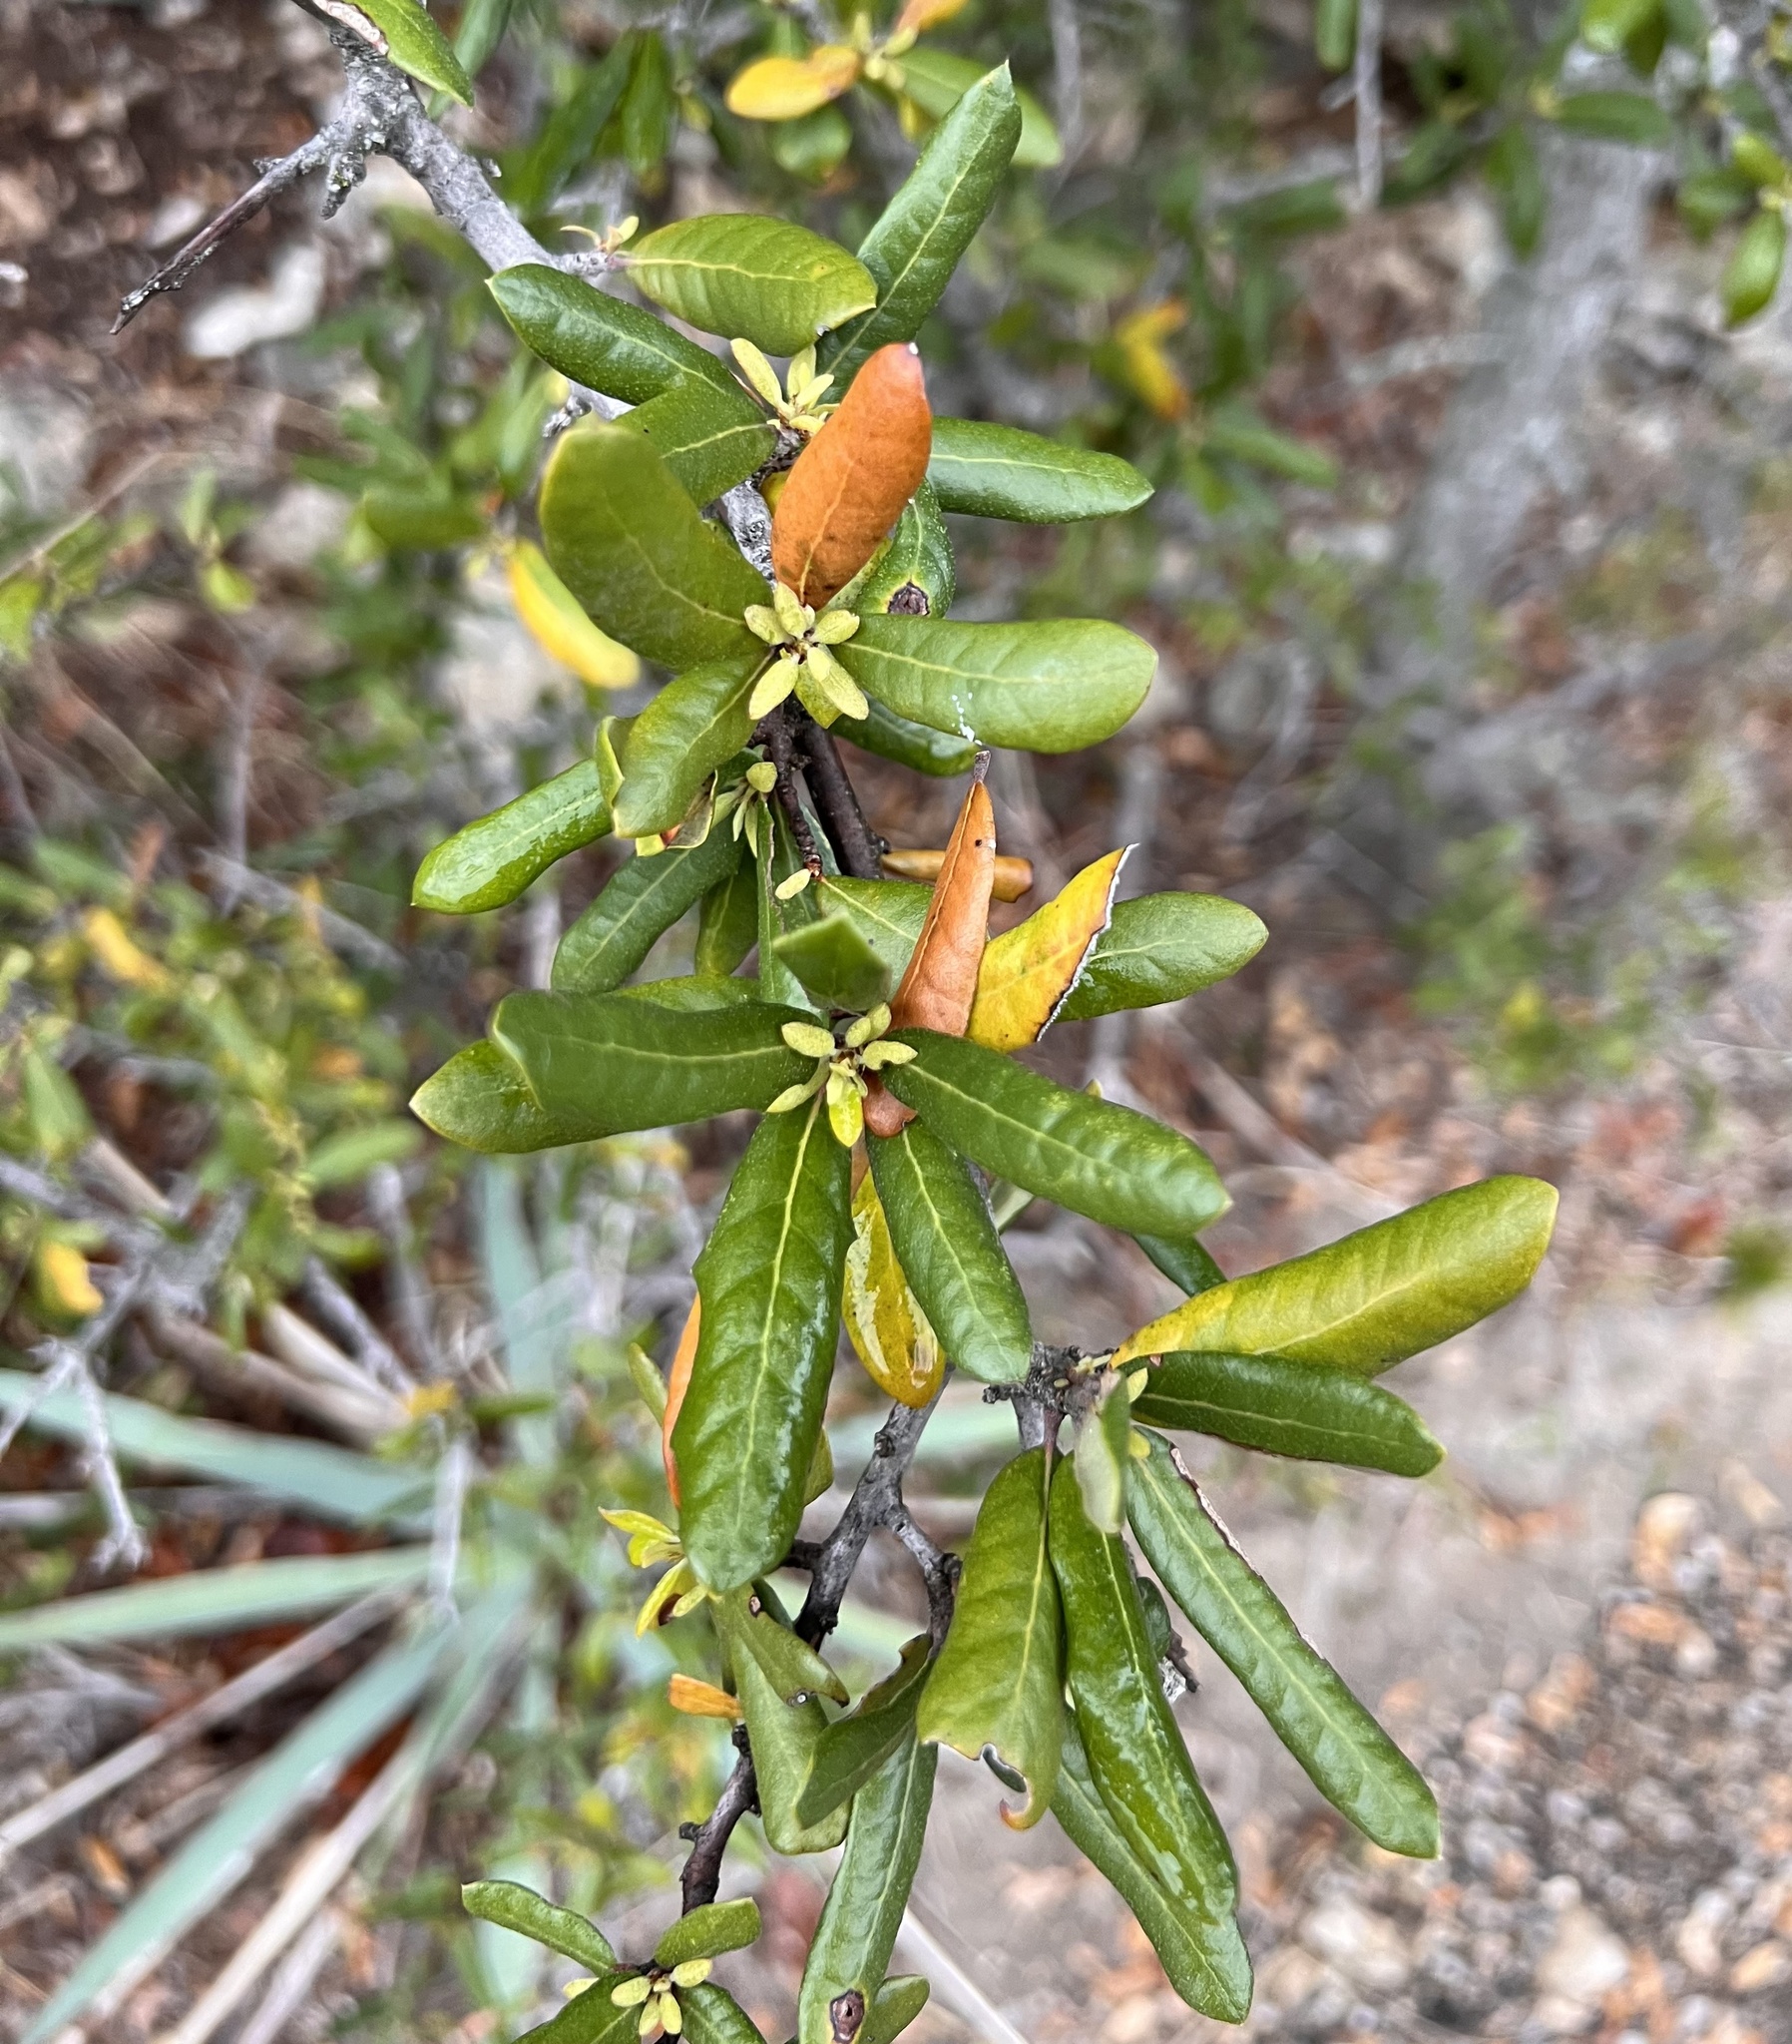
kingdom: Plantae
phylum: Tracheophyta
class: Magnoliopsida
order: Fagales
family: Fagaceae
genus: Quercus
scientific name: Quercus fusiformis
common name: Texas live oak
